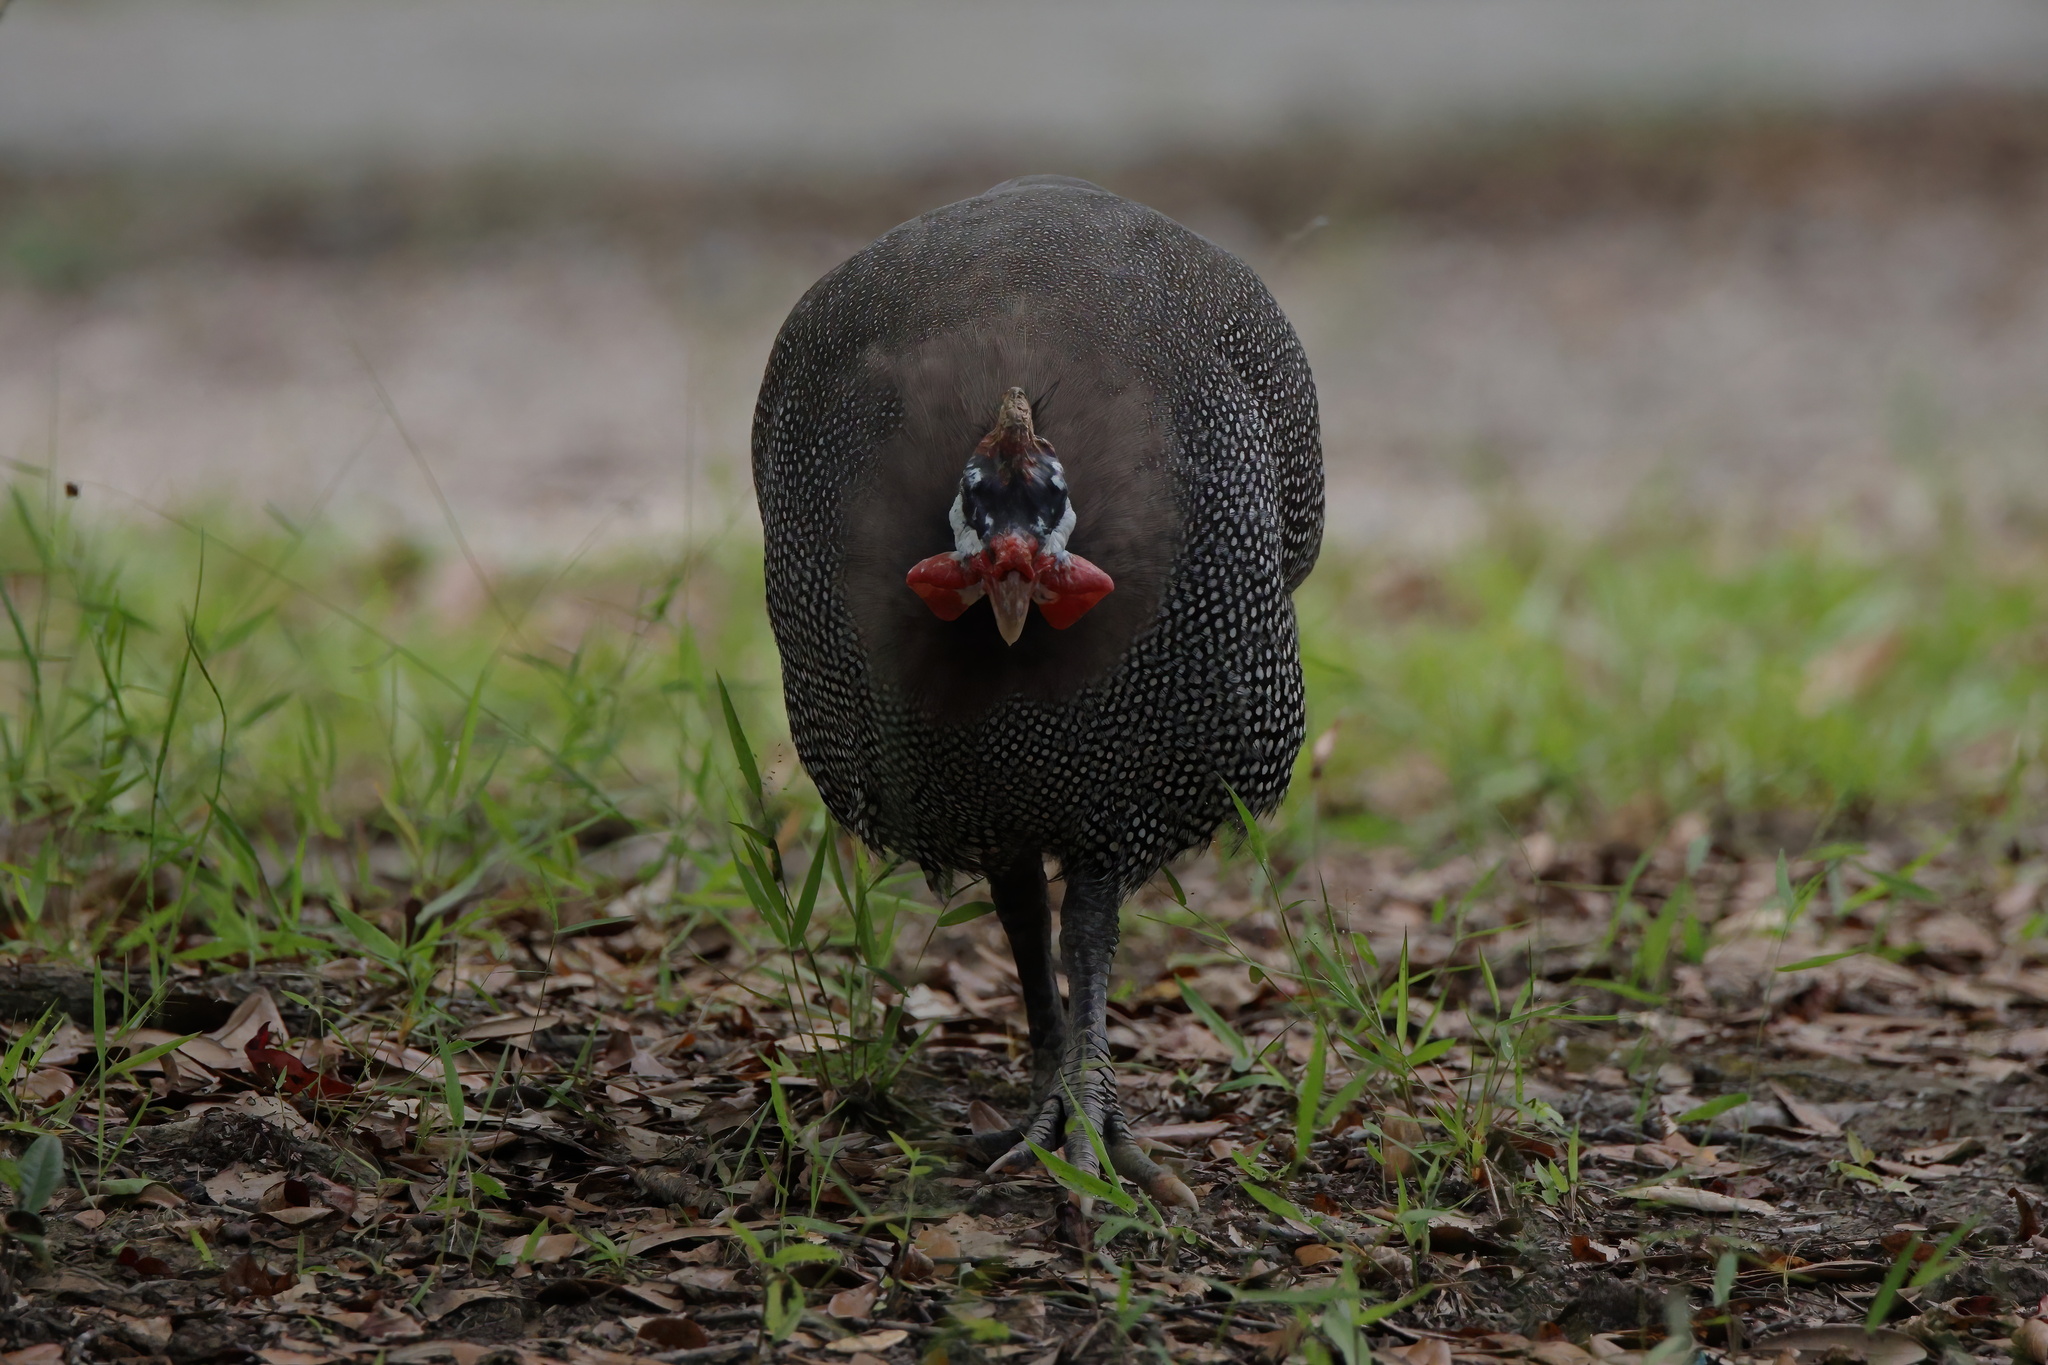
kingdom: Animalia
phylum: Chordata
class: Aves
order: Galliformes
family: Numididae
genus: Numida
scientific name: Numida meleagris
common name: Helmeted guineafowl
